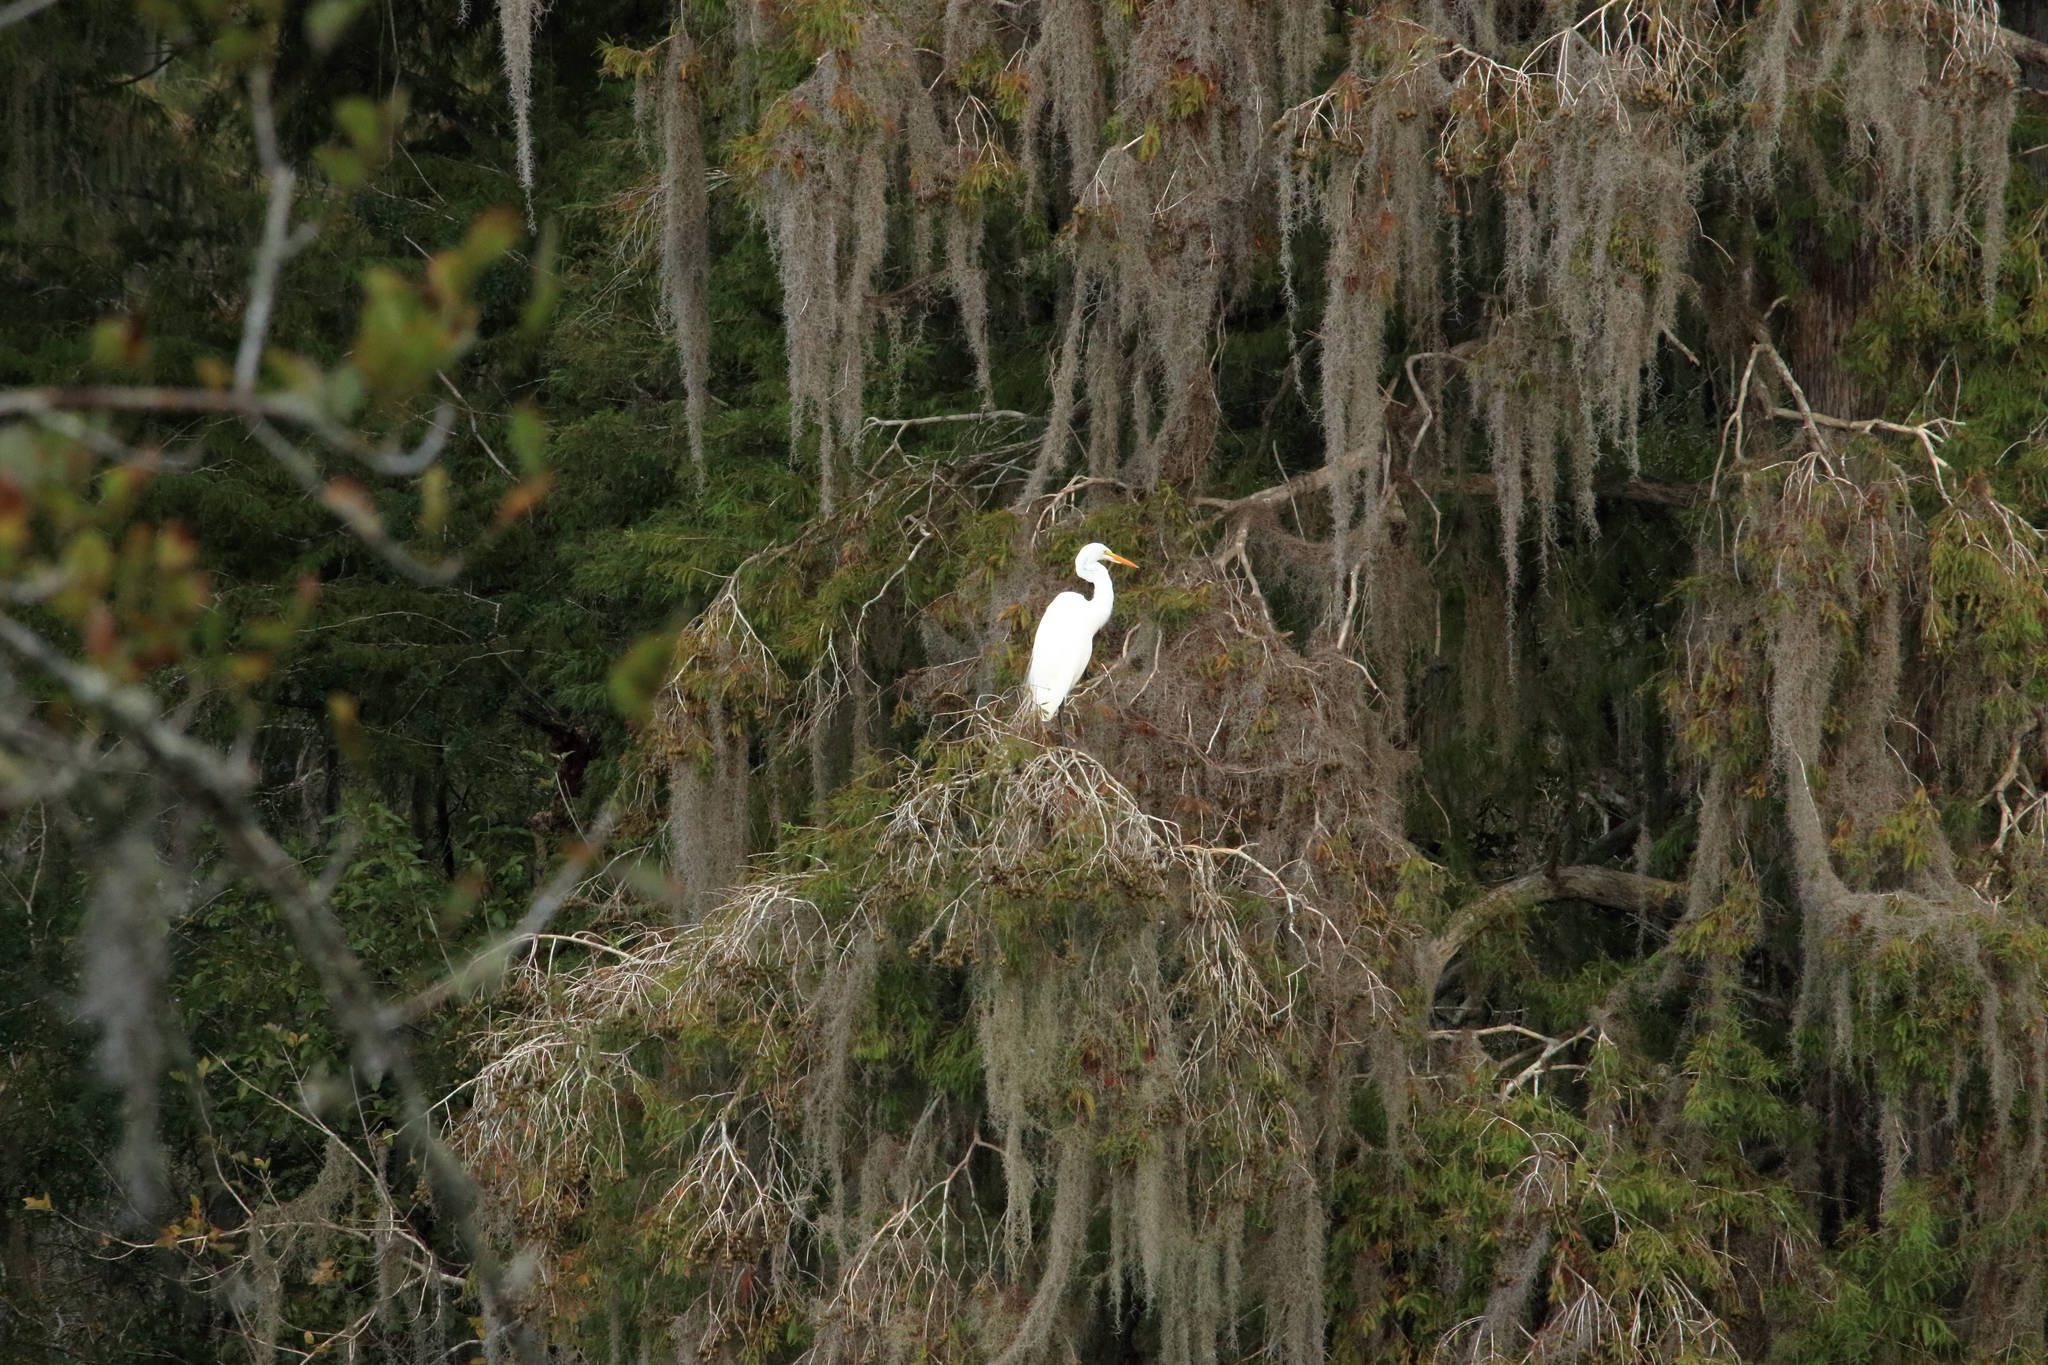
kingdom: Animalia
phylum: Chordata
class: Aves
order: Pelecaniformes
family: Ardeidae
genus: Ardea
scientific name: Ardea alba
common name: Great egret
